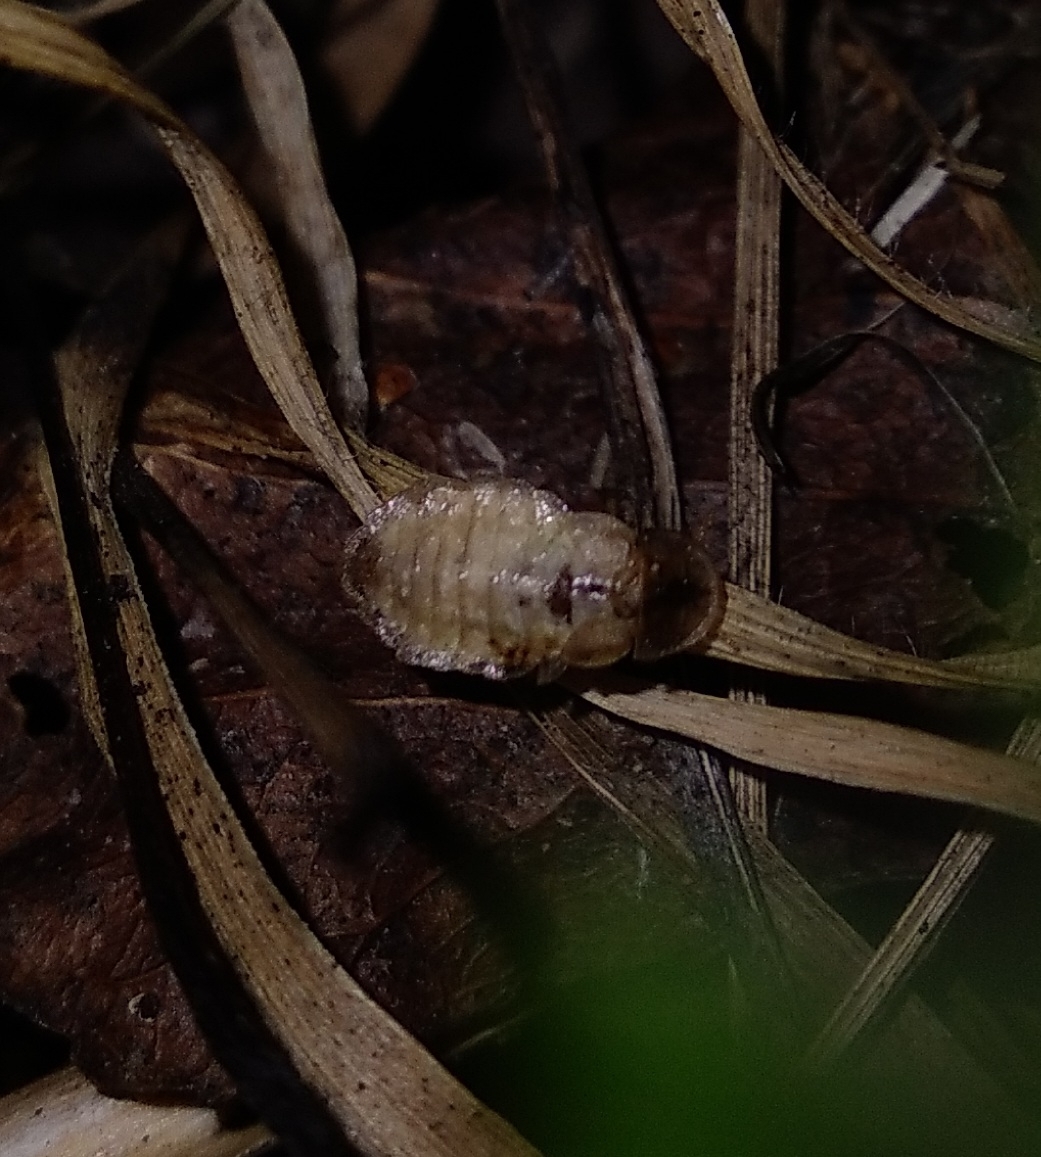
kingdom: Animalia
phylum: Arthropoda
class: Insecta
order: Coleoptera
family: Lampyridae
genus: Lamprohiza
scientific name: Lamprohiza splendidula
